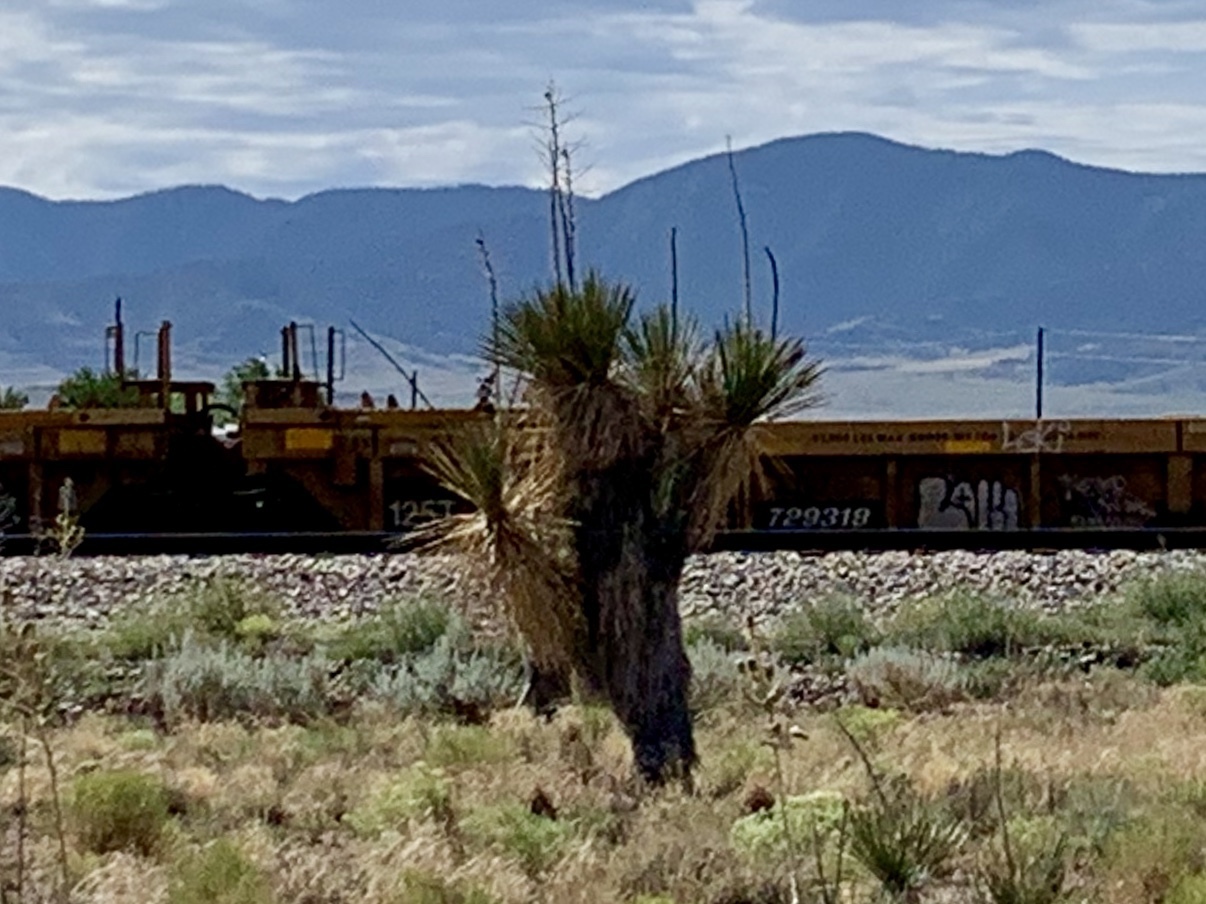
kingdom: Plantae
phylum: Tracheophyta
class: Liliopsida
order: Asparagales
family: Asparagaceae
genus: Yucca
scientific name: Yucca elata
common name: Palmella
